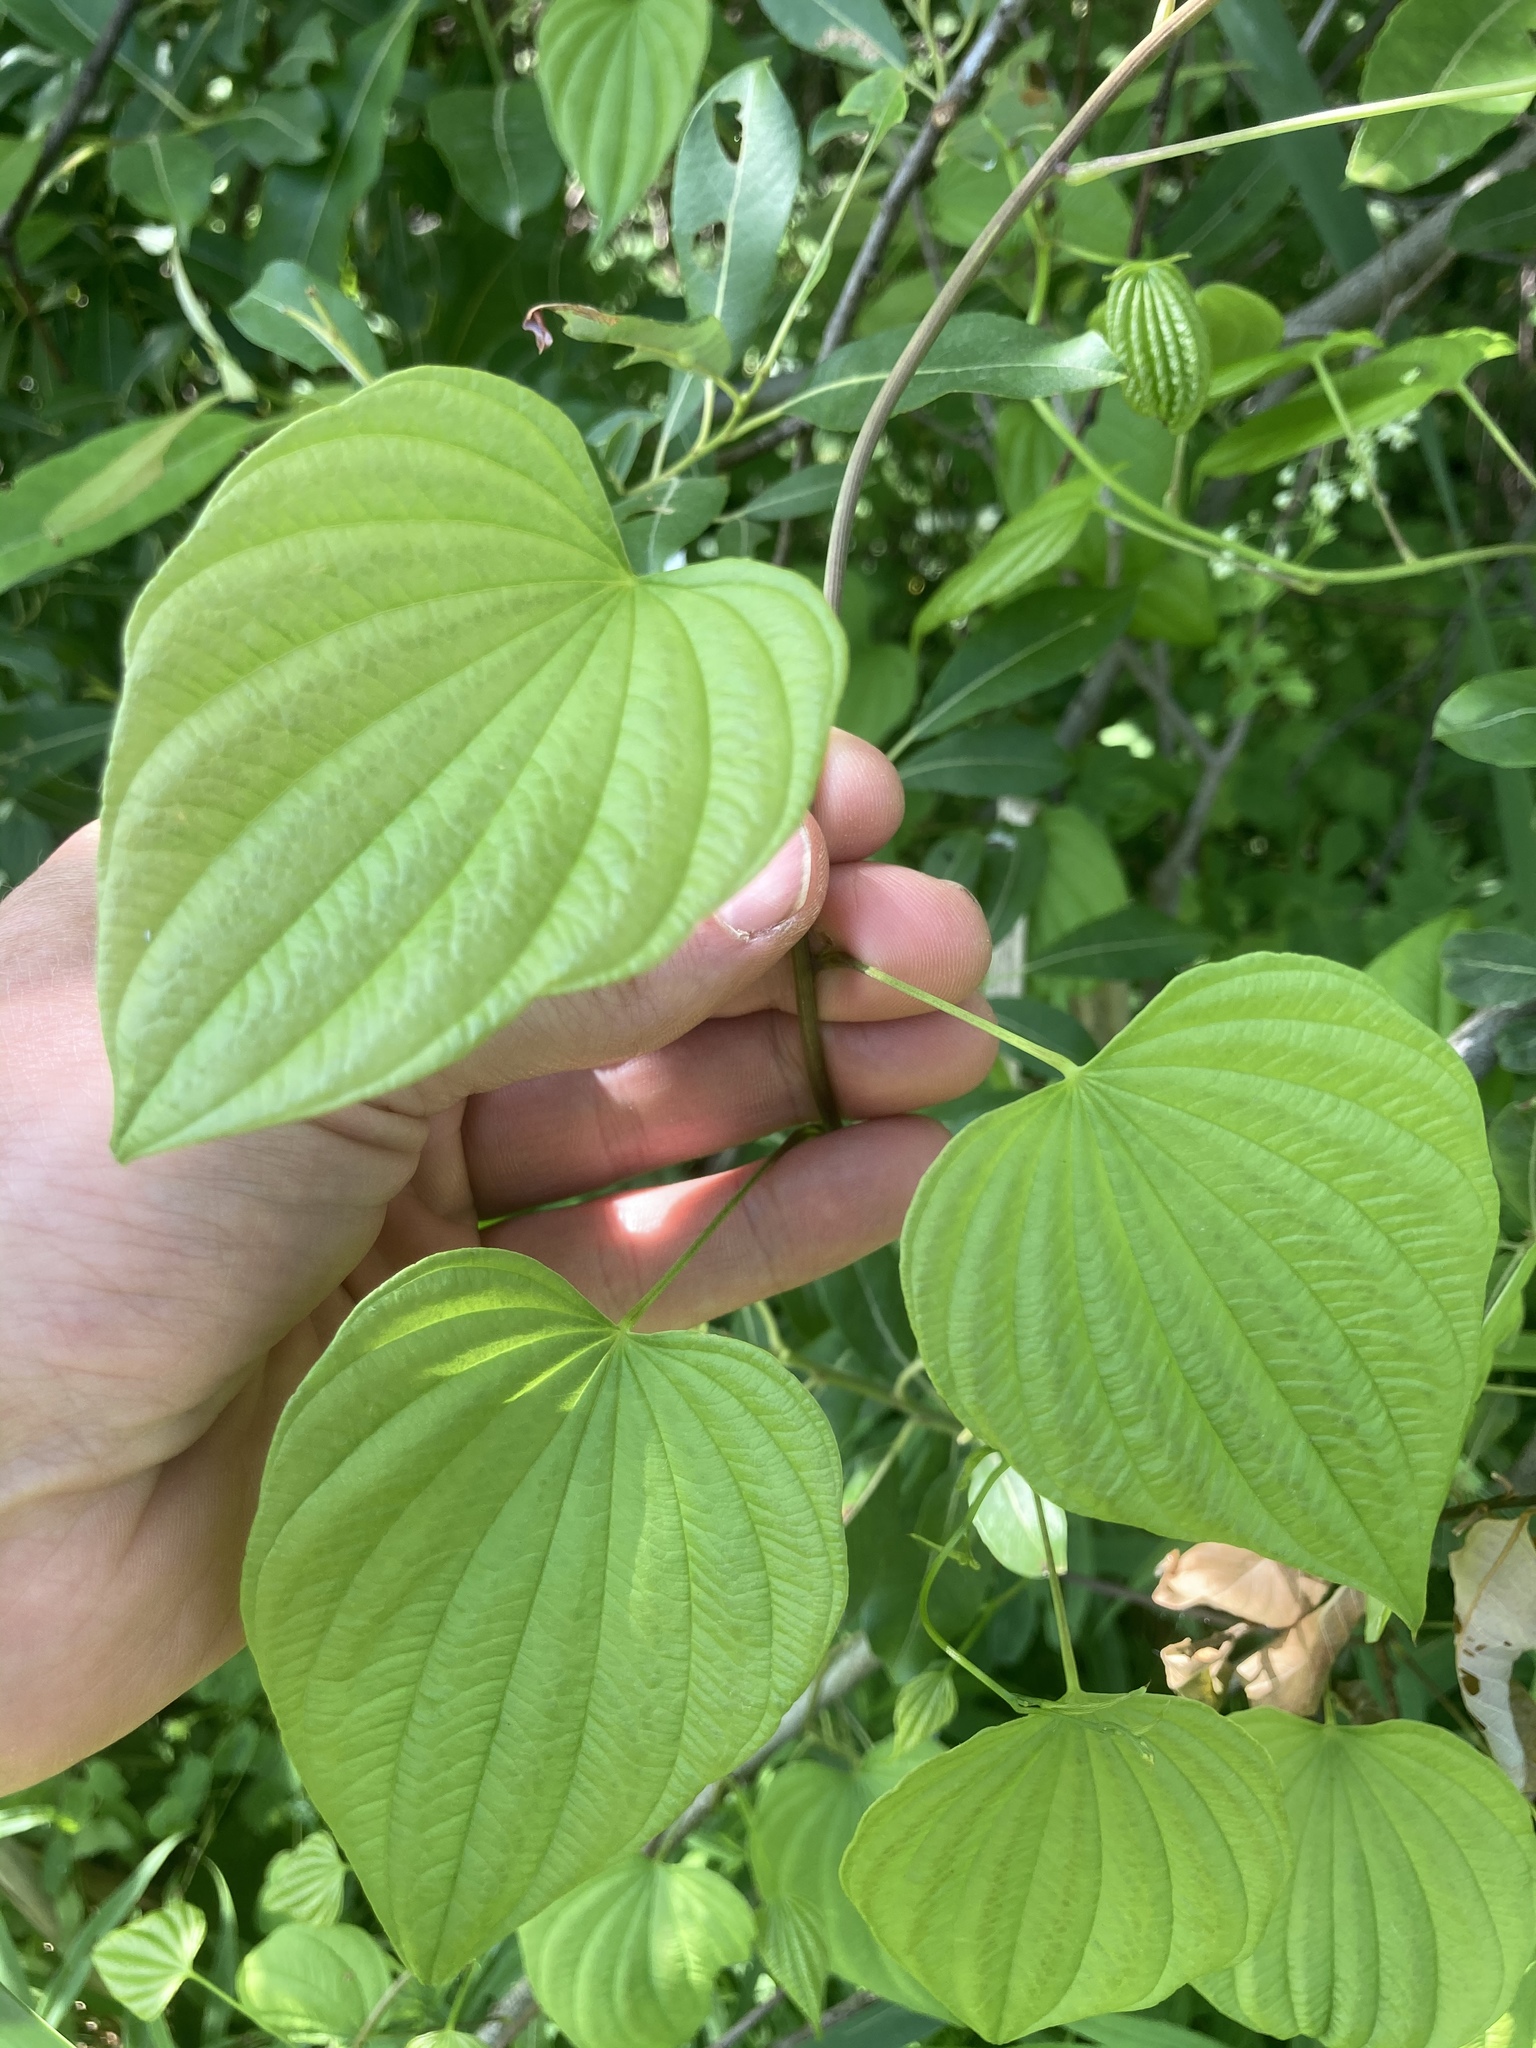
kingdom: Plantae
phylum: Tracheophyta
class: Liliopsida
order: Dioscoreales
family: Dioscoreaceae
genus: Dioscorea
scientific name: Dioscorea villosa
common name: Wild yam
